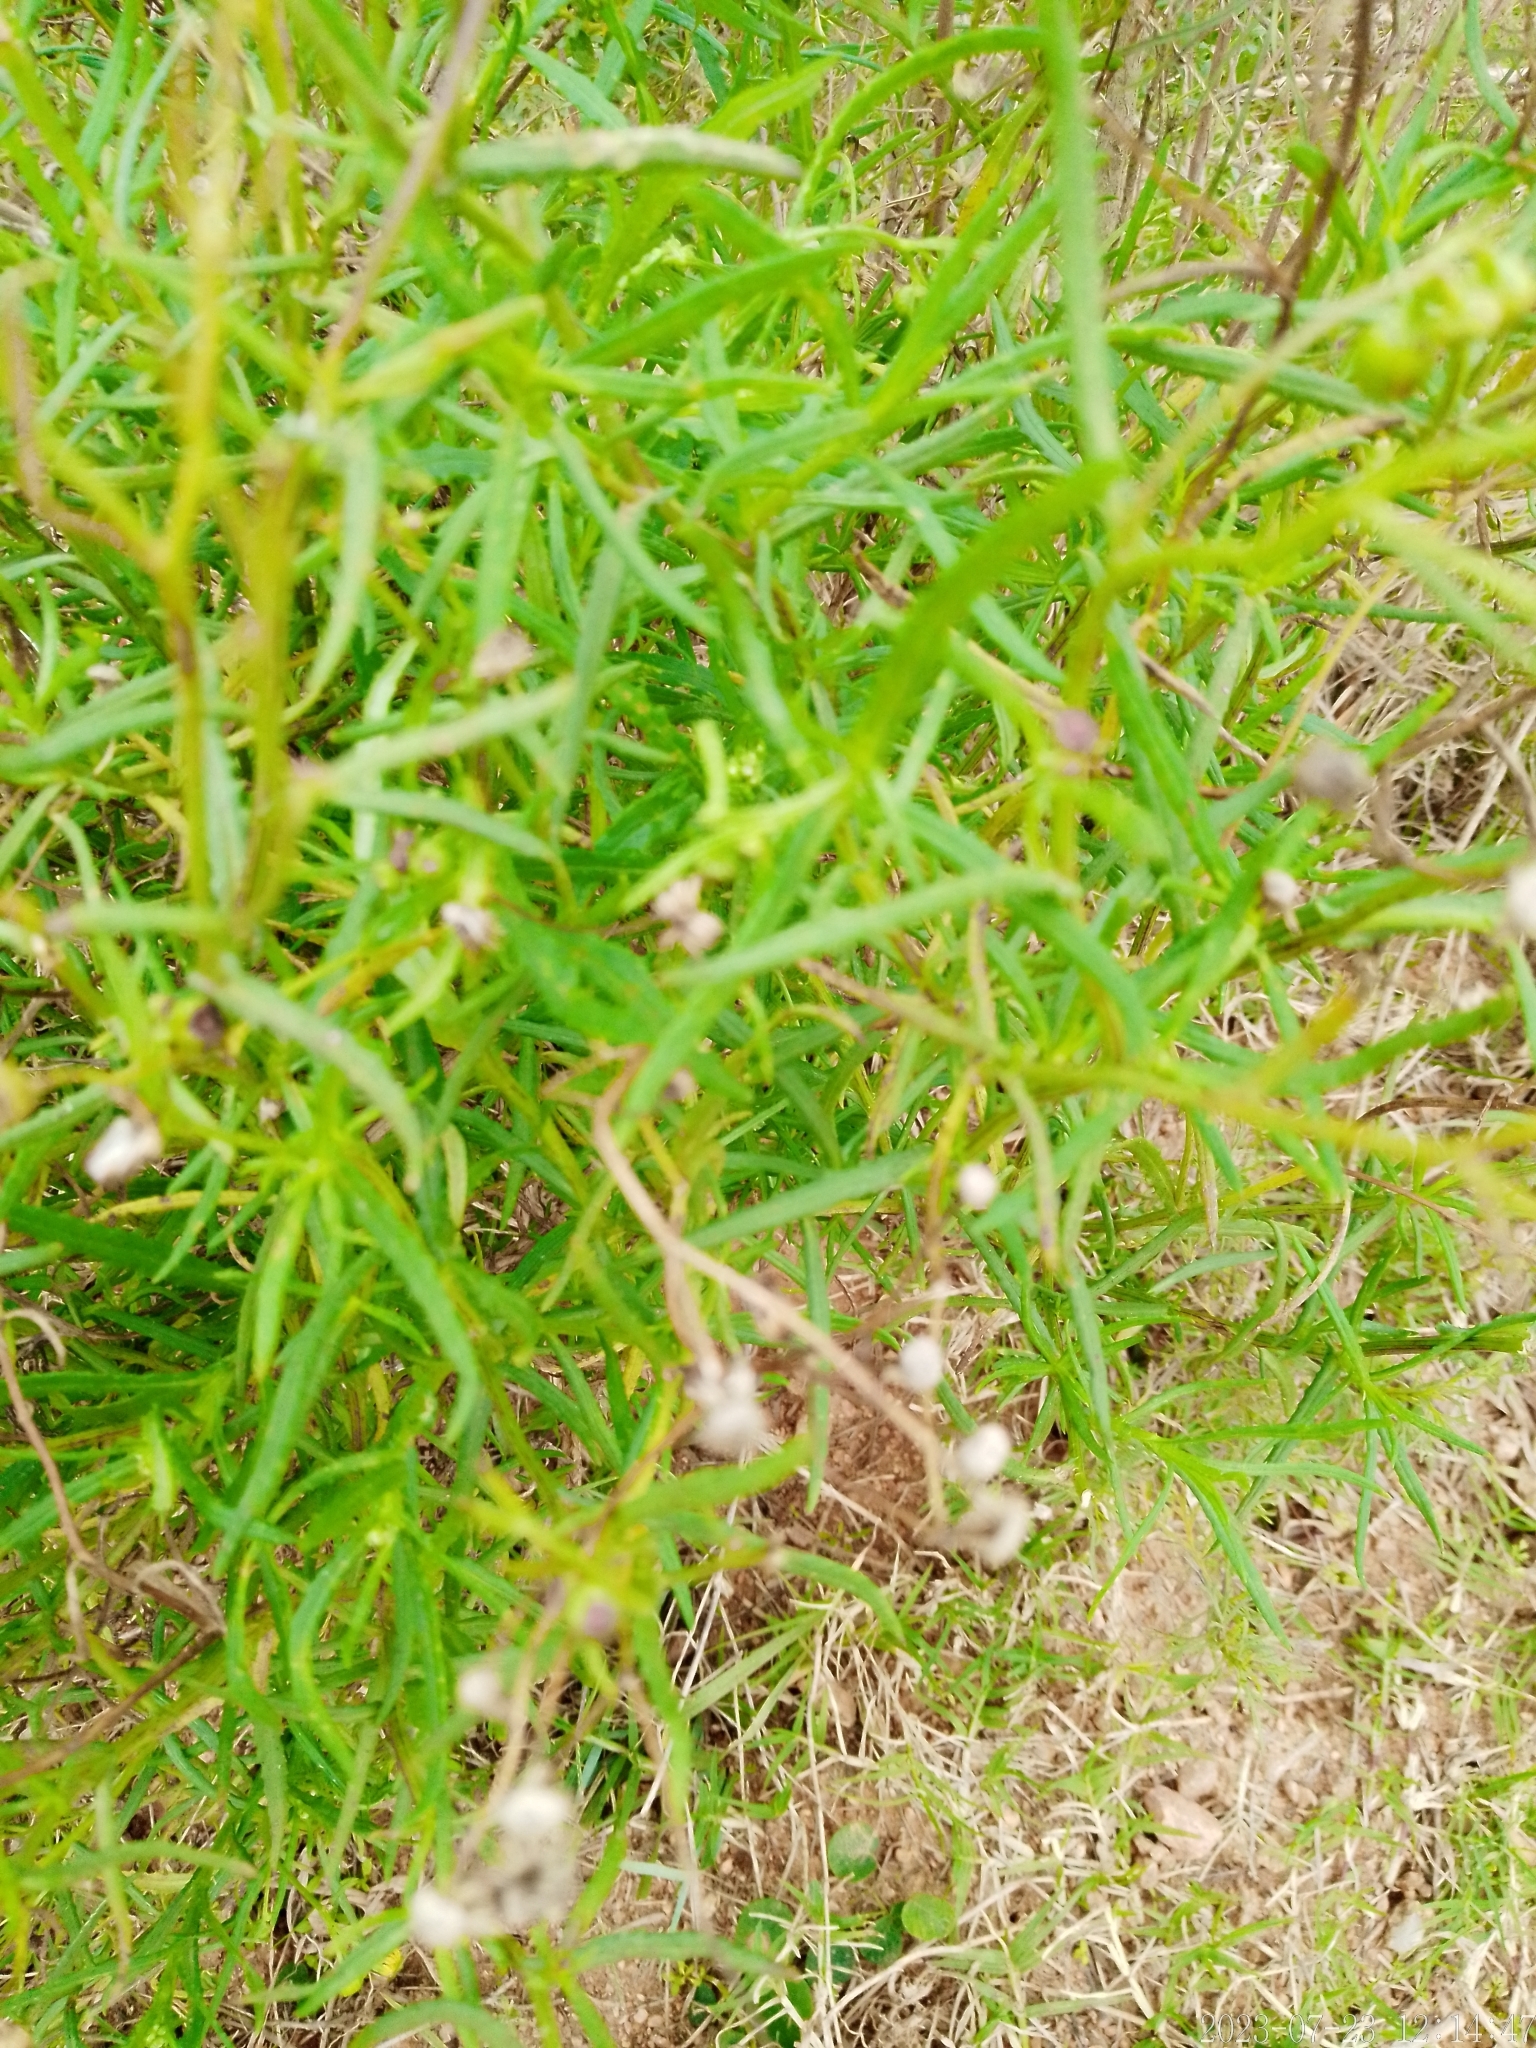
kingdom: Plantae
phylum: Tracheophyta
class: Magnoliopsida
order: Asterales
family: Asteraceae
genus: Senecio
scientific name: Senecio madagascariensis
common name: Madagascar ragwort
